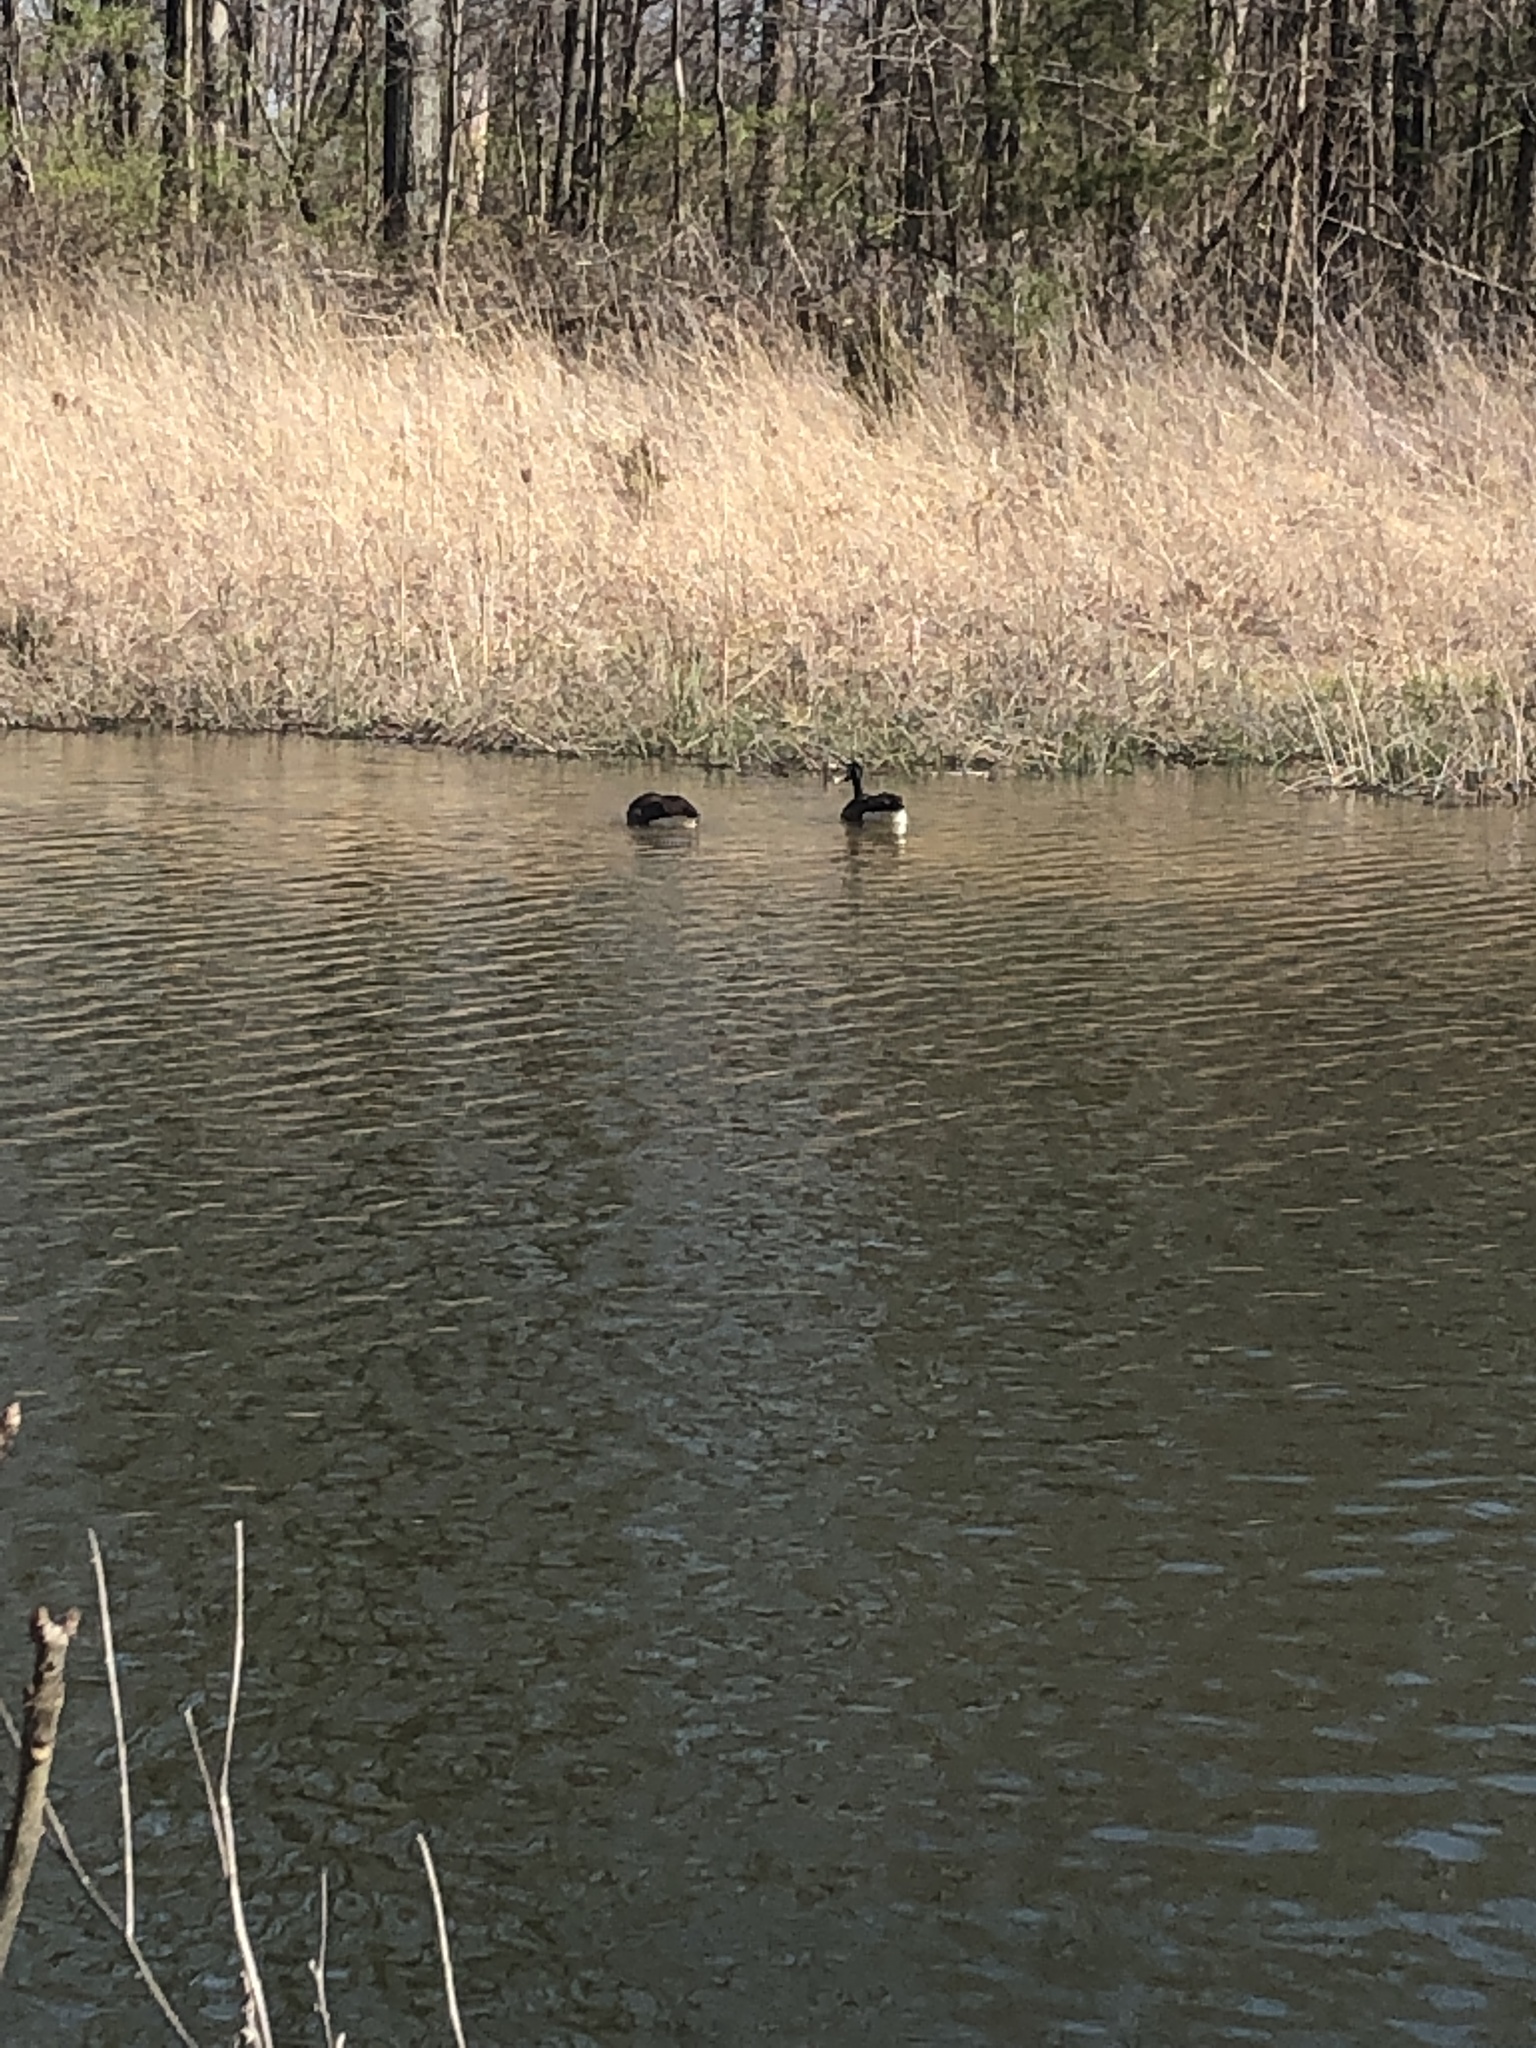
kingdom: Animalia
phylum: Chordata
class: Aves
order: Anseriformes
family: Anatidae
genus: Branta
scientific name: Branta canadensis
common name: Canada goose
